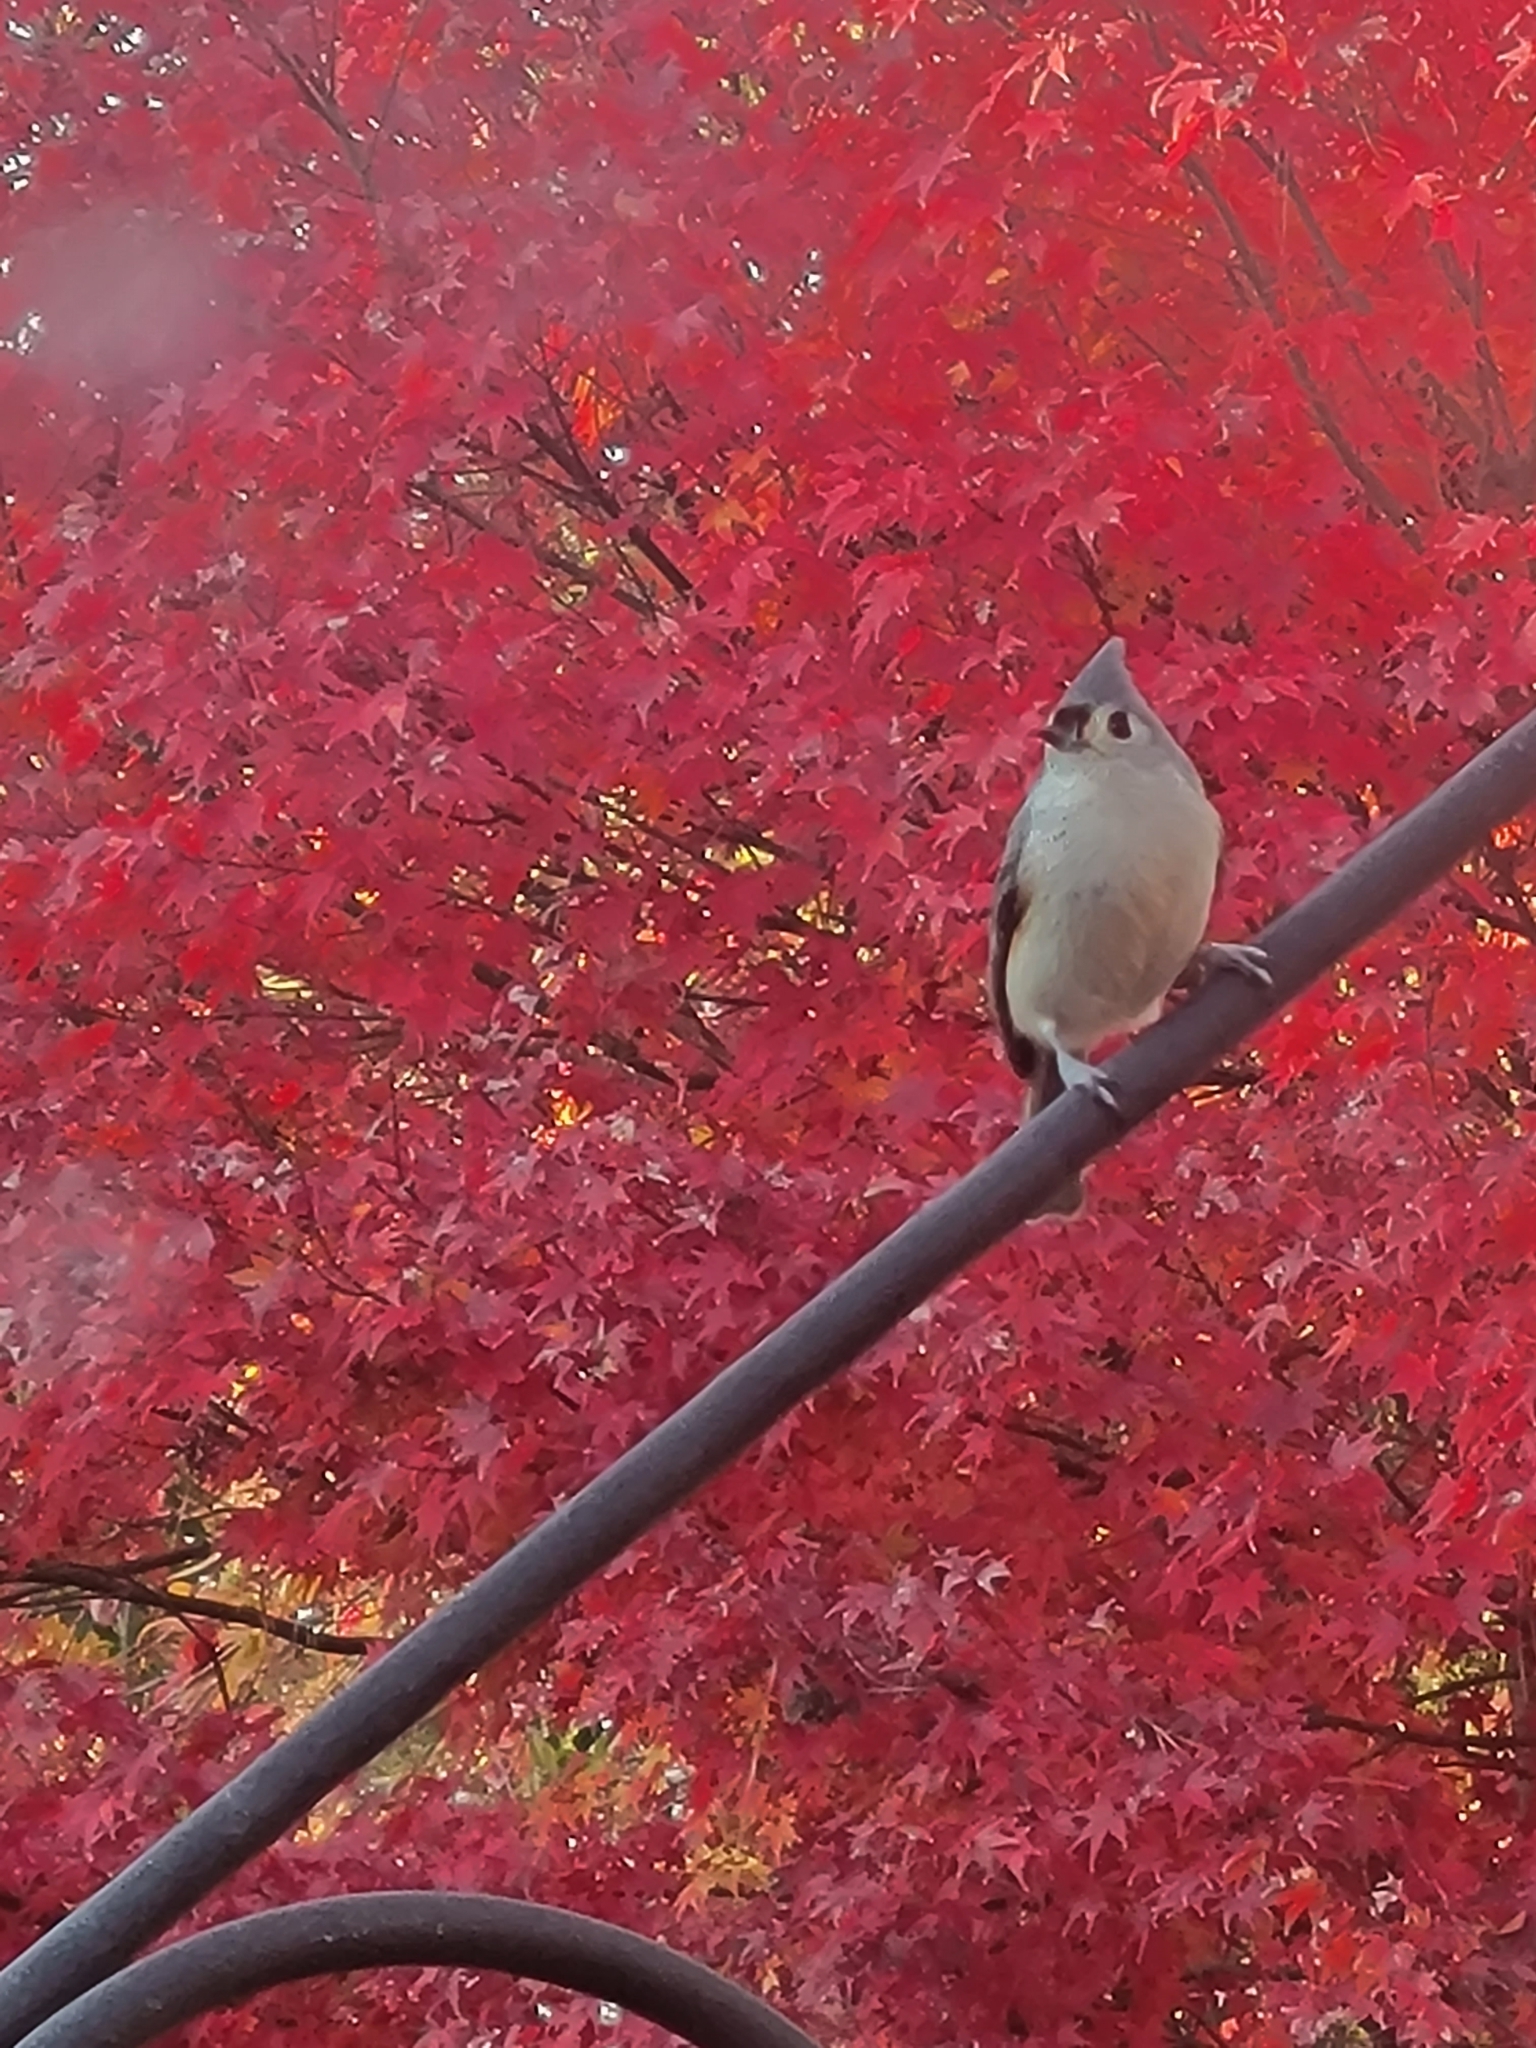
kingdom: Animalia
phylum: Chordata
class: Aves
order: Passeriformes
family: Paridae
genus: Baeolophus
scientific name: Baeolophus bicolor
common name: Tufted titmouse
